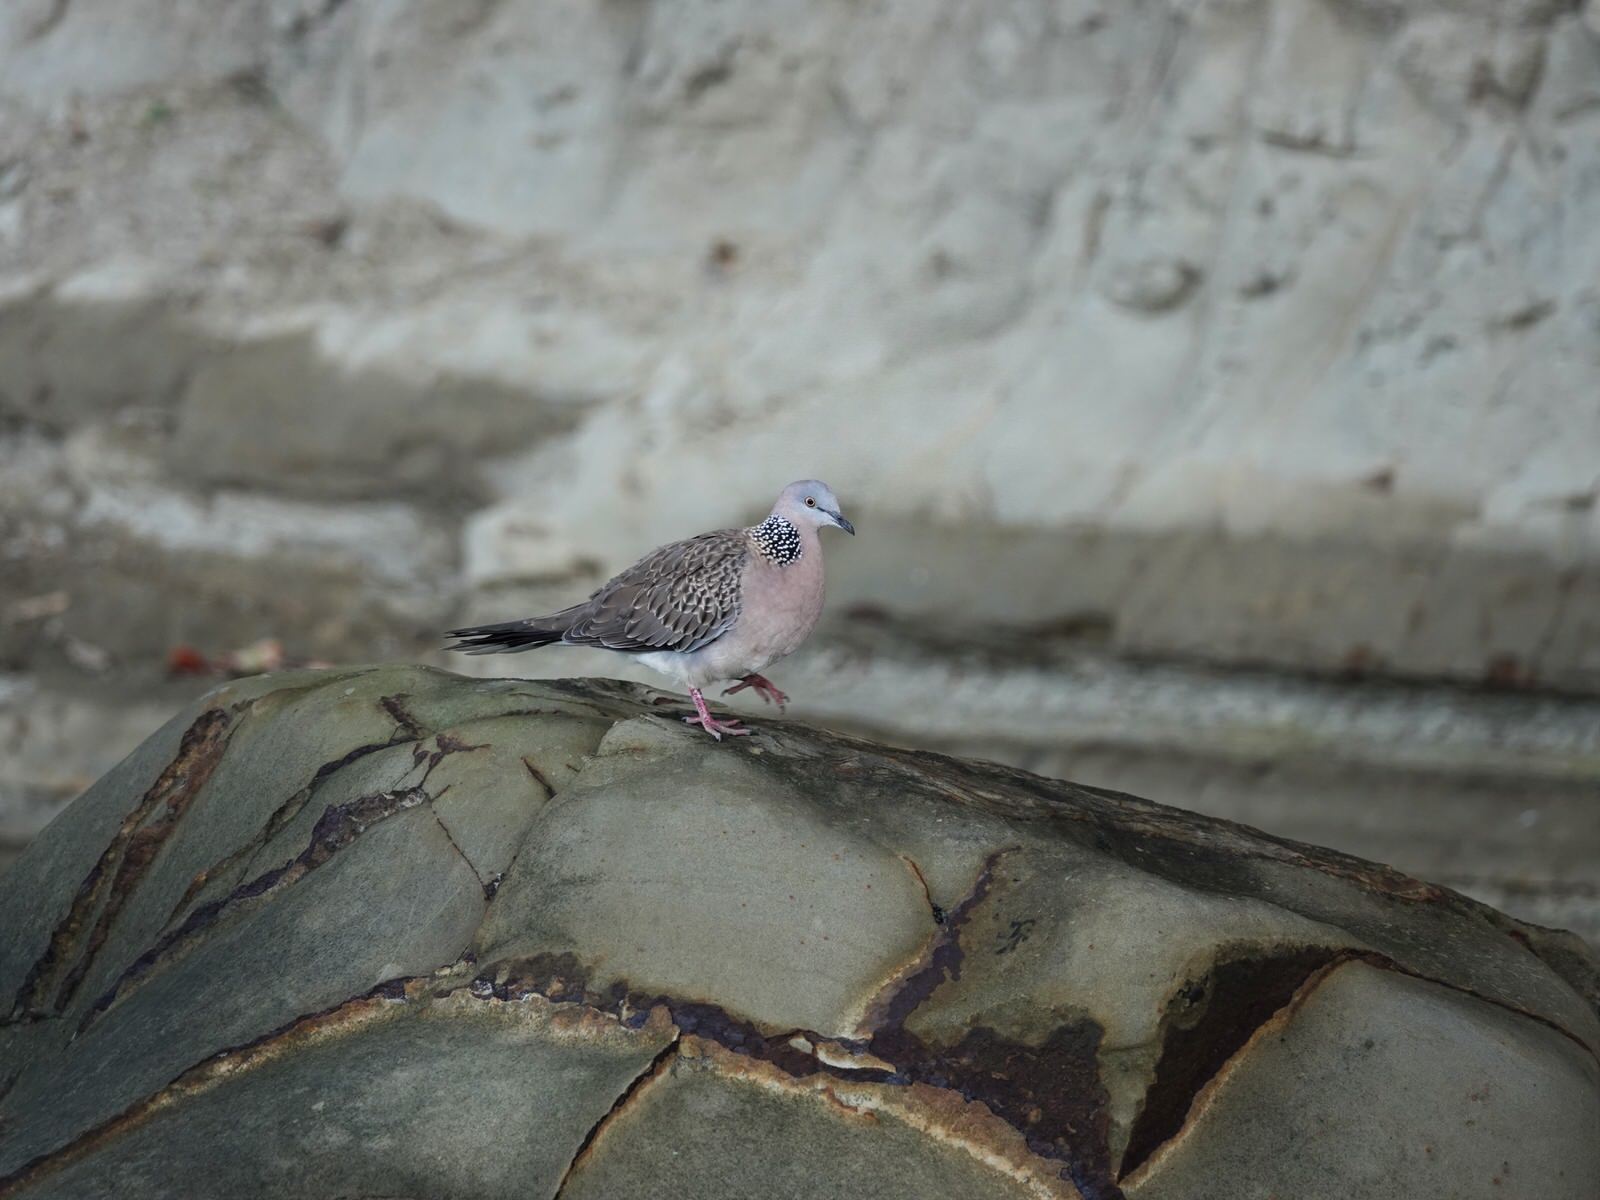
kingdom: Animalia
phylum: Chordata
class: Aves
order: Columbiformes
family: Columbidae
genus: Spilopelia
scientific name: Spilopelia chinensis
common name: Spotted dove
